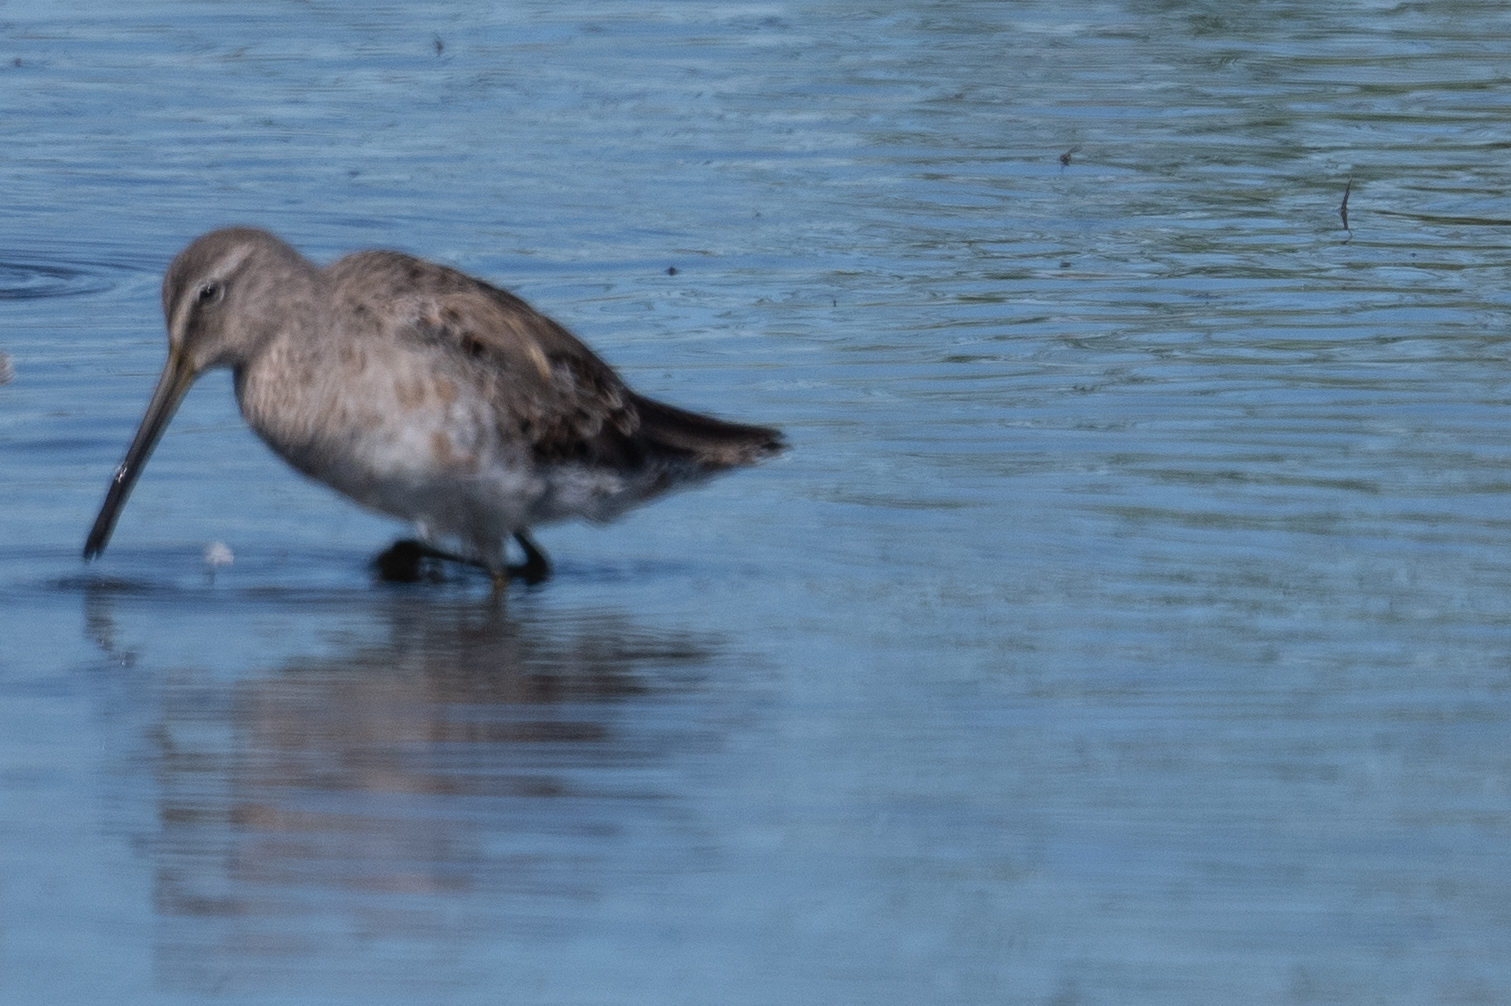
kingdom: Animalia
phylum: Chordata
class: Aves
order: Charadriiformes
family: Scolopacidae
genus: Limnodromus
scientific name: Limnodromus scolopaceus
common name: Long-billed dowitcher
